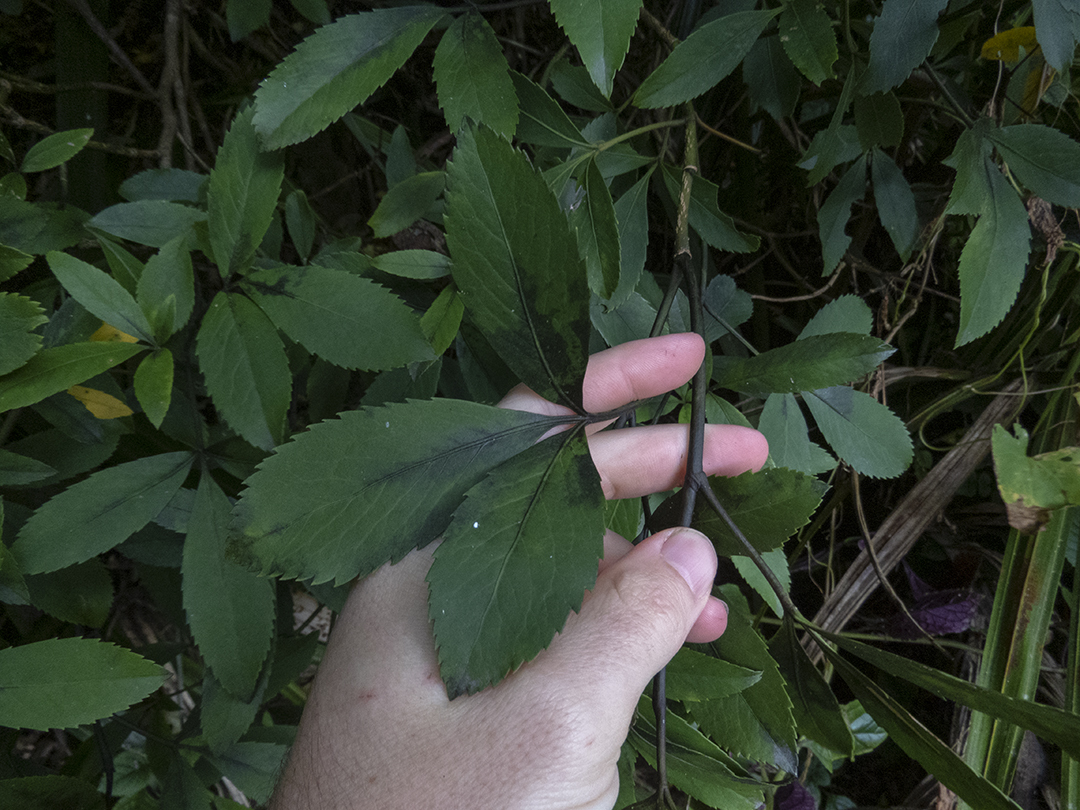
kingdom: Plantae
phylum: Tracheophyta
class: Magnoliopsida
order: Apiales
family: Araliaceae
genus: Neopanax
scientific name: Neopanax colensoi
